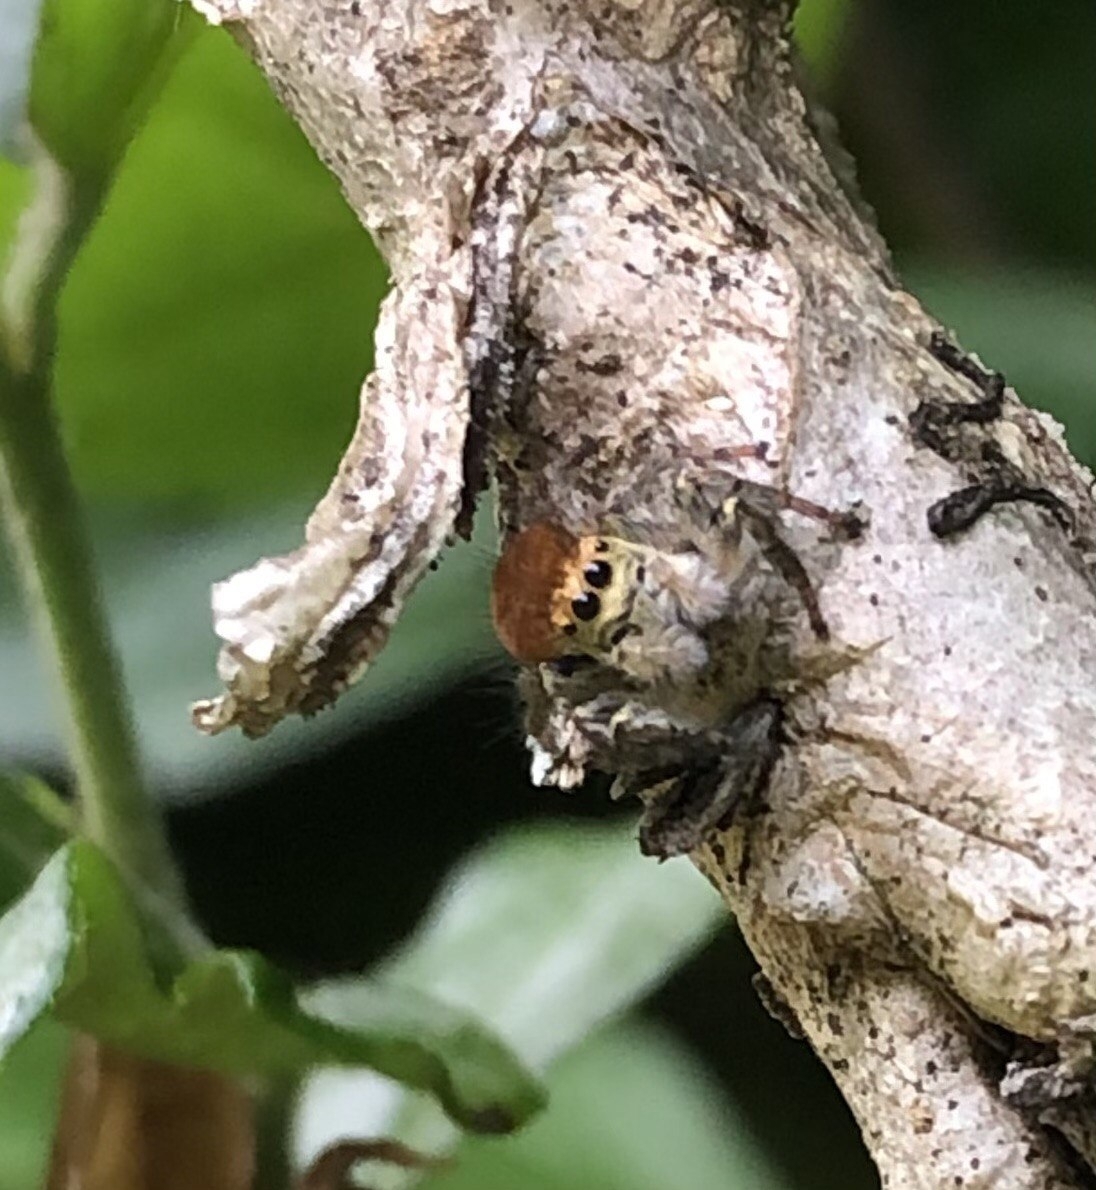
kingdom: Animalia
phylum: Arthropoda
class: Arachnida
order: Araneae
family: Salticidae
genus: Carrhotus
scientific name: Carrhotus xanthogramma
